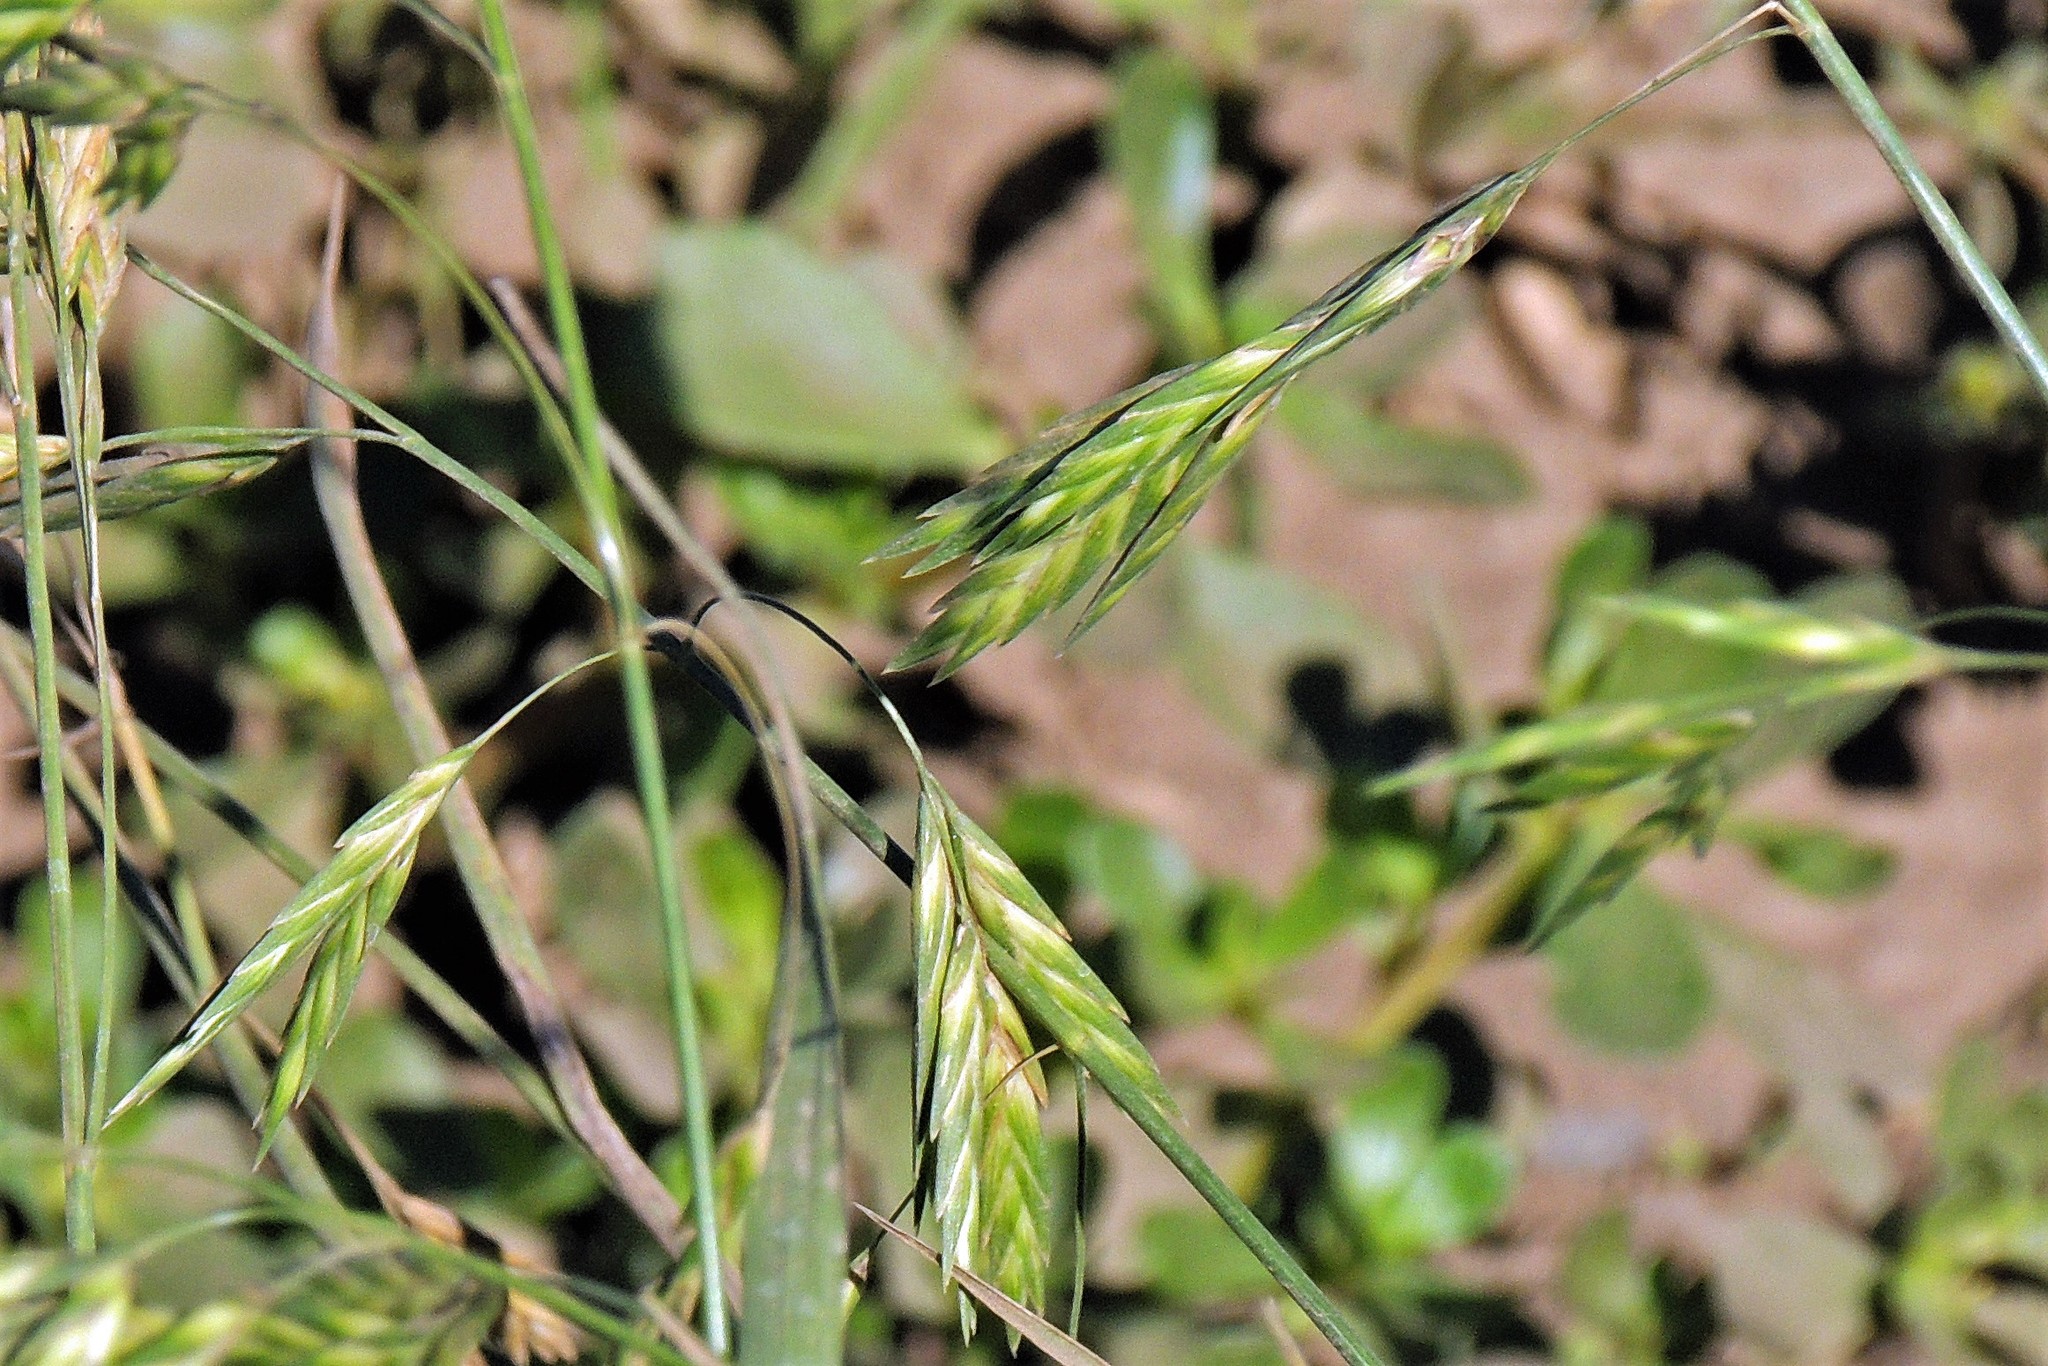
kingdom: Plantae
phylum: Tracheophyta
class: Liliopsida
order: Poales
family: Poaceae
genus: Bromus
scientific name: Bromus catharticus
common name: Rescuegrass
